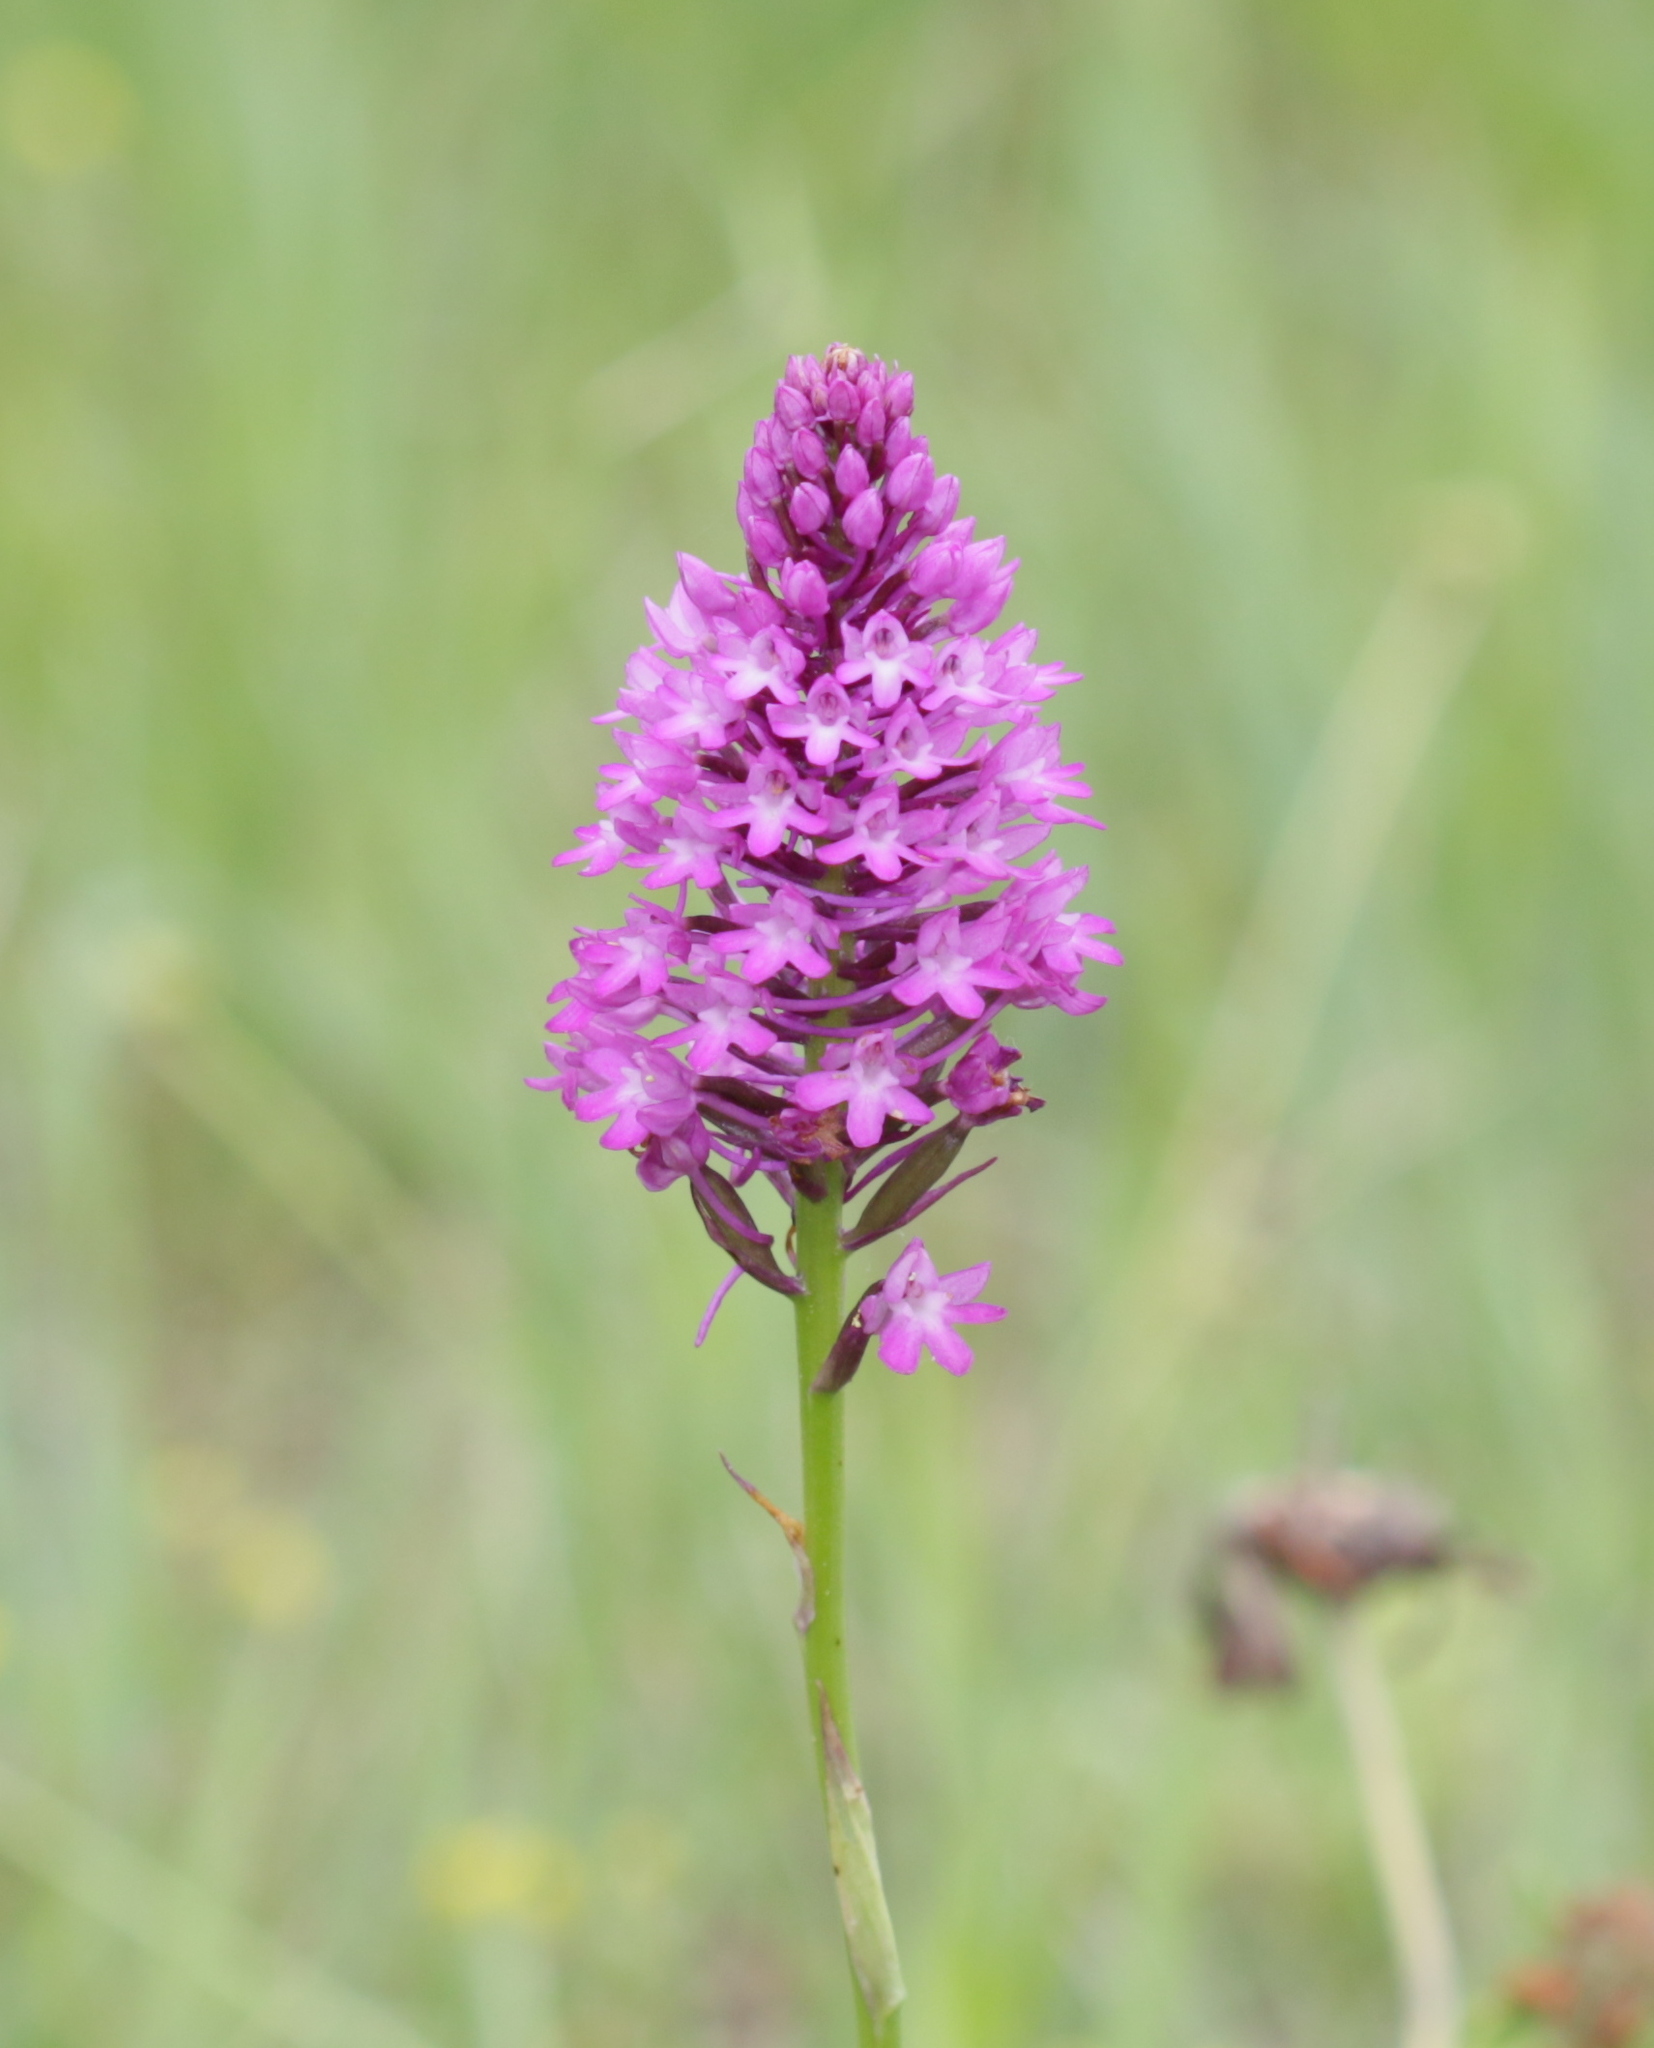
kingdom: Plantae
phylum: Tracheophyta
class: Liliopsida
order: Asparagales
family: Orchidaceae
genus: Anacamptis
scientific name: Anacamptis pyramidalis
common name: Pyramidal orchid
